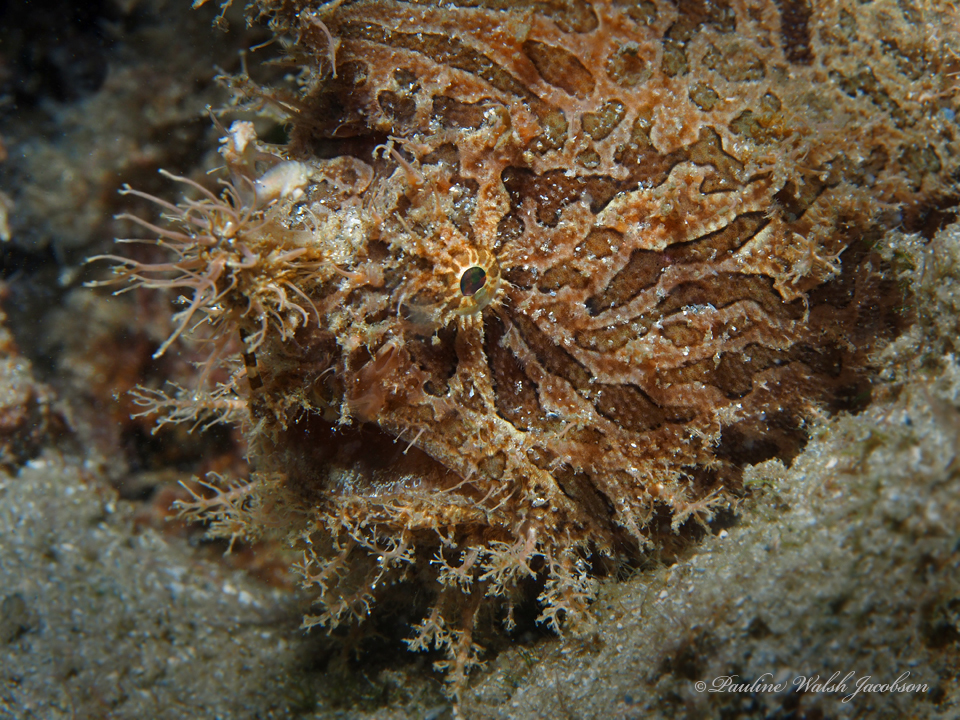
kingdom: Animalia
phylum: Chordata
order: Lophiiformes
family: Antennariidae
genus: Antennarius
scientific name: Antennarius striatus
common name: Striated frogfish
